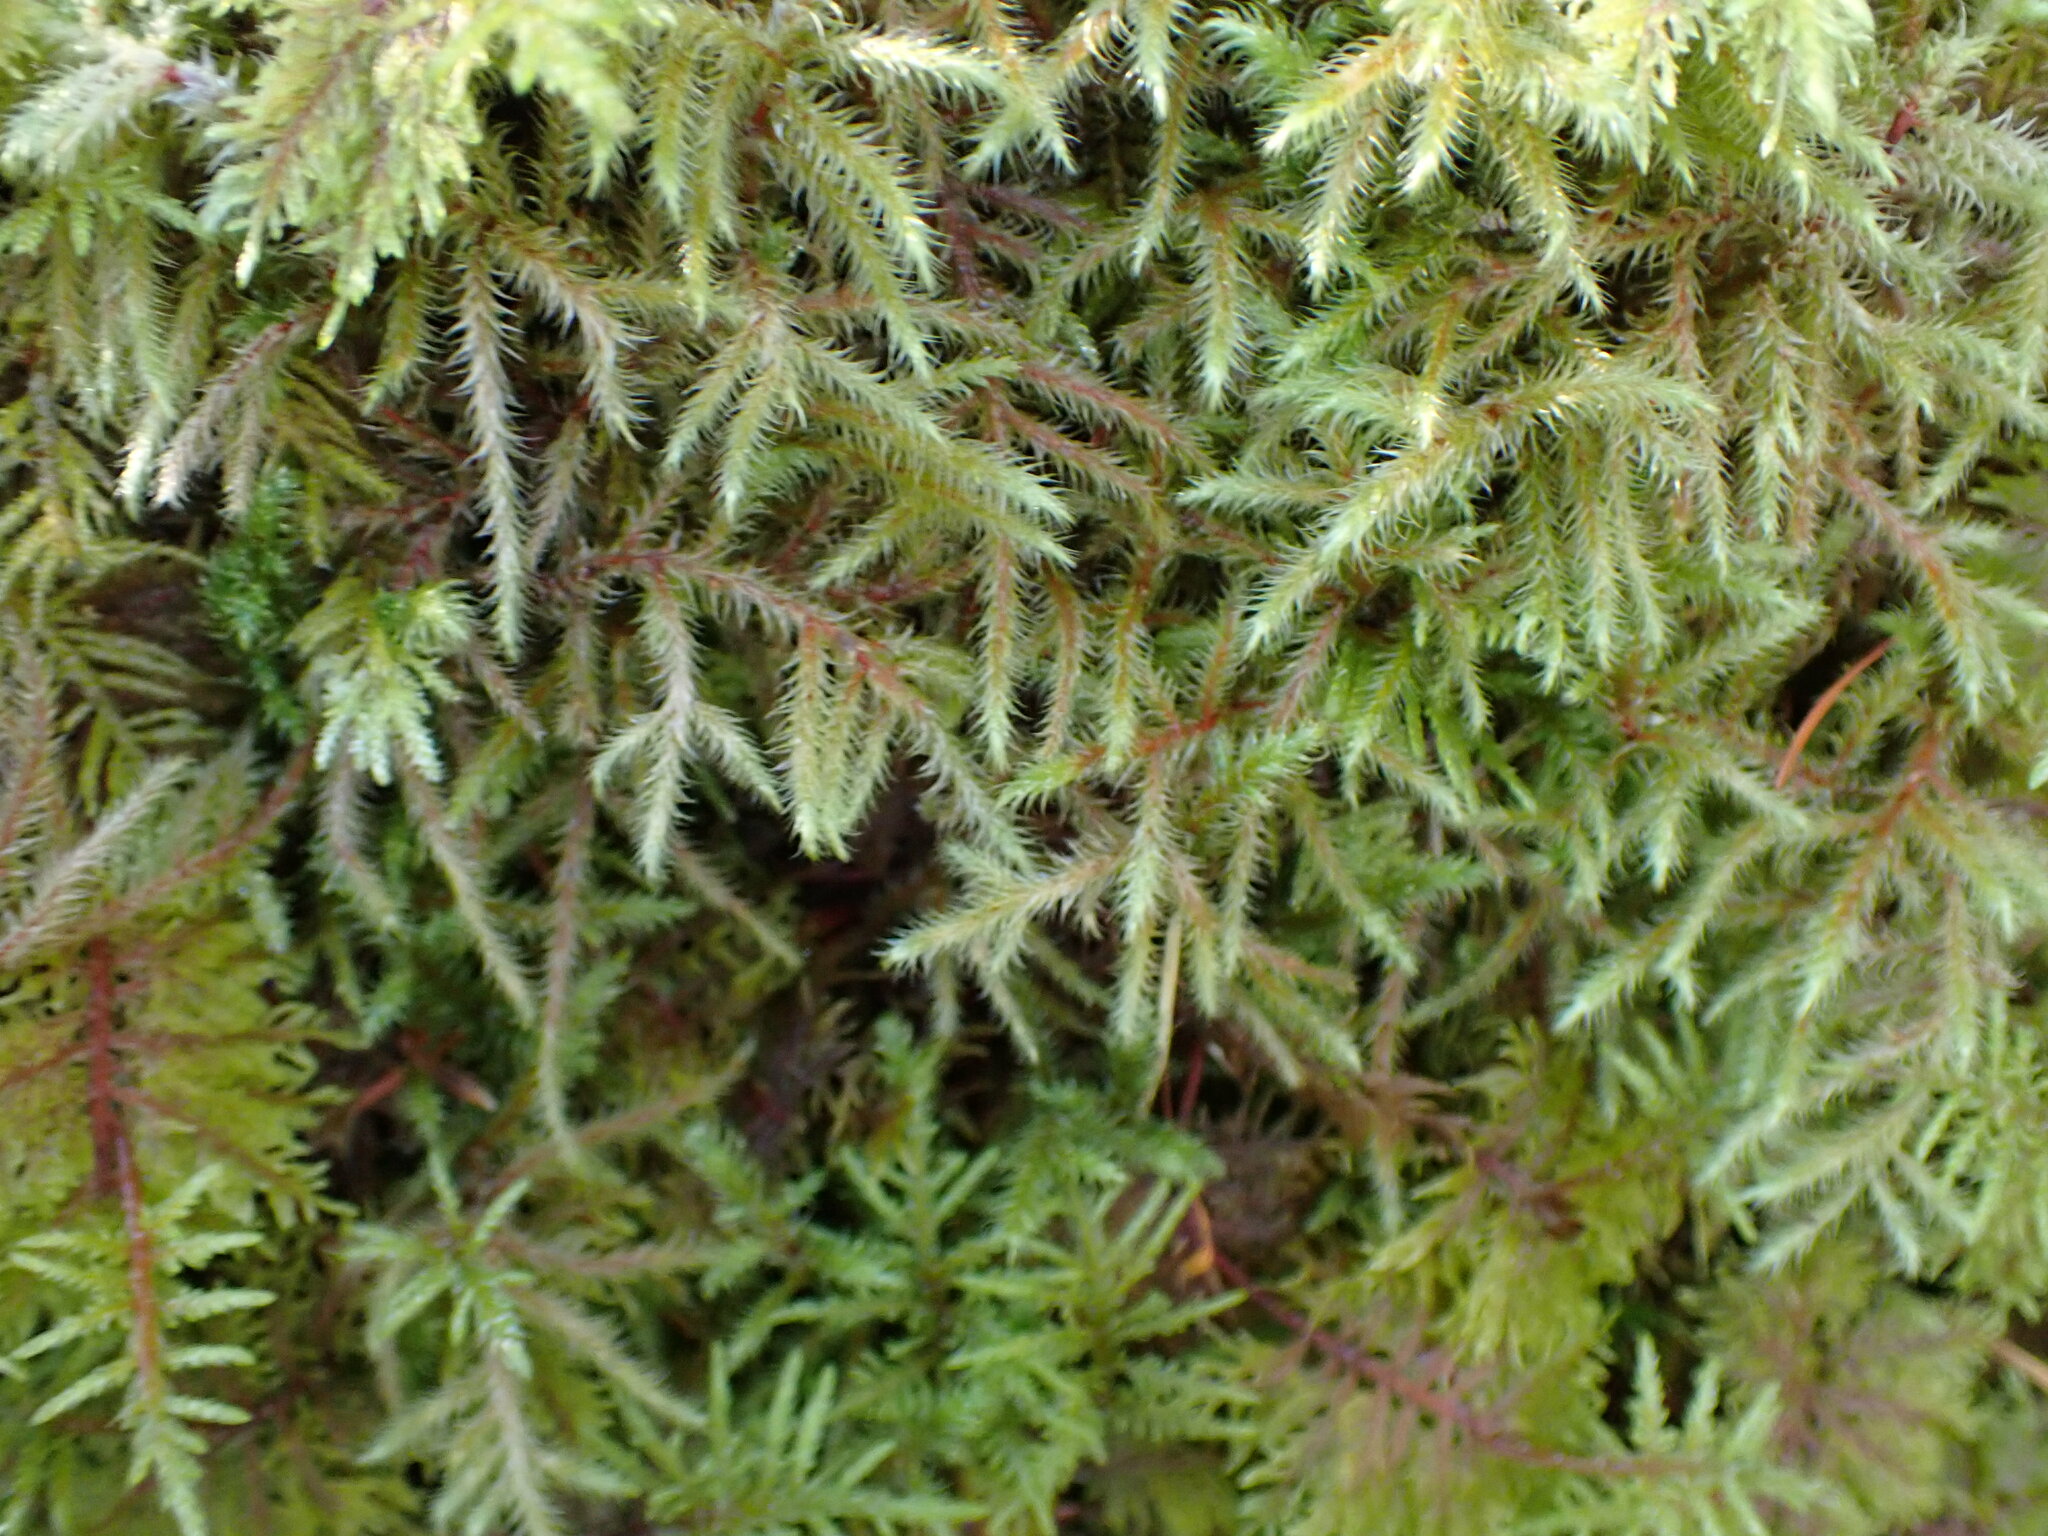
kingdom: Plantae
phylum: Bryophyta
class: Bryopsida
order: Hypnales
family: Hylocomiaceae
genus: Rhytidiadelphus
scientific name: Rhytidiadelphus loreus
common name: Lanky moss
